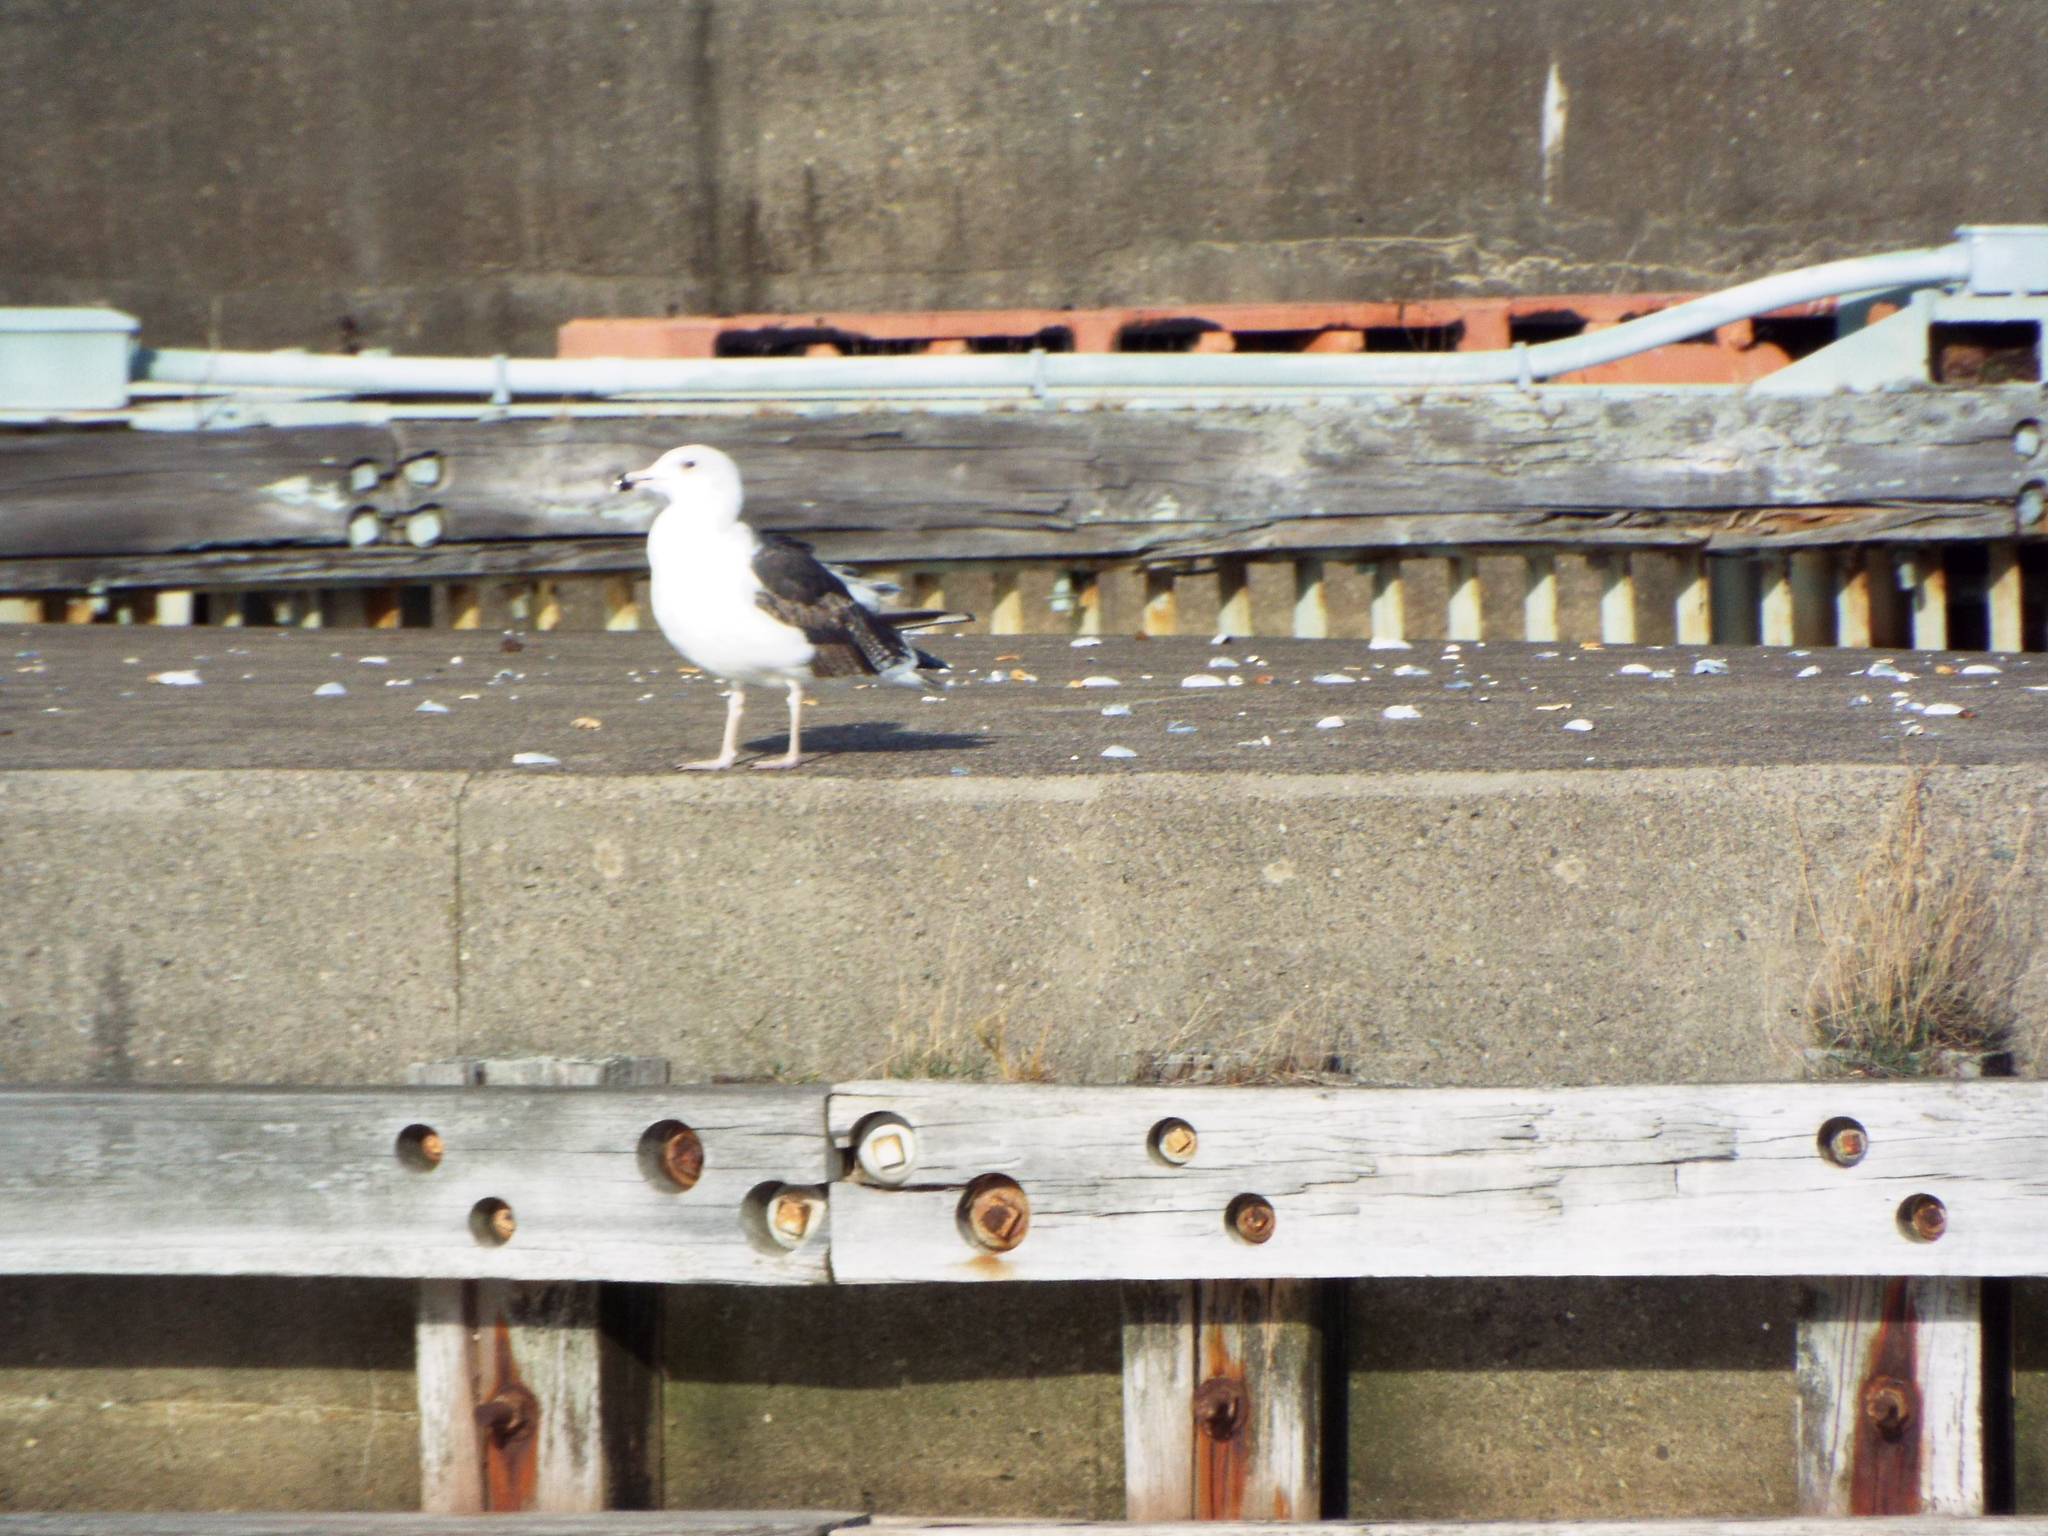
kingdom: Animalia
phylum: Chordata
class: Aves
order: Charadriiformes
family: Laridae
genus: Larus
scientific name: Larus marinus
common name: Great black-backed gull
